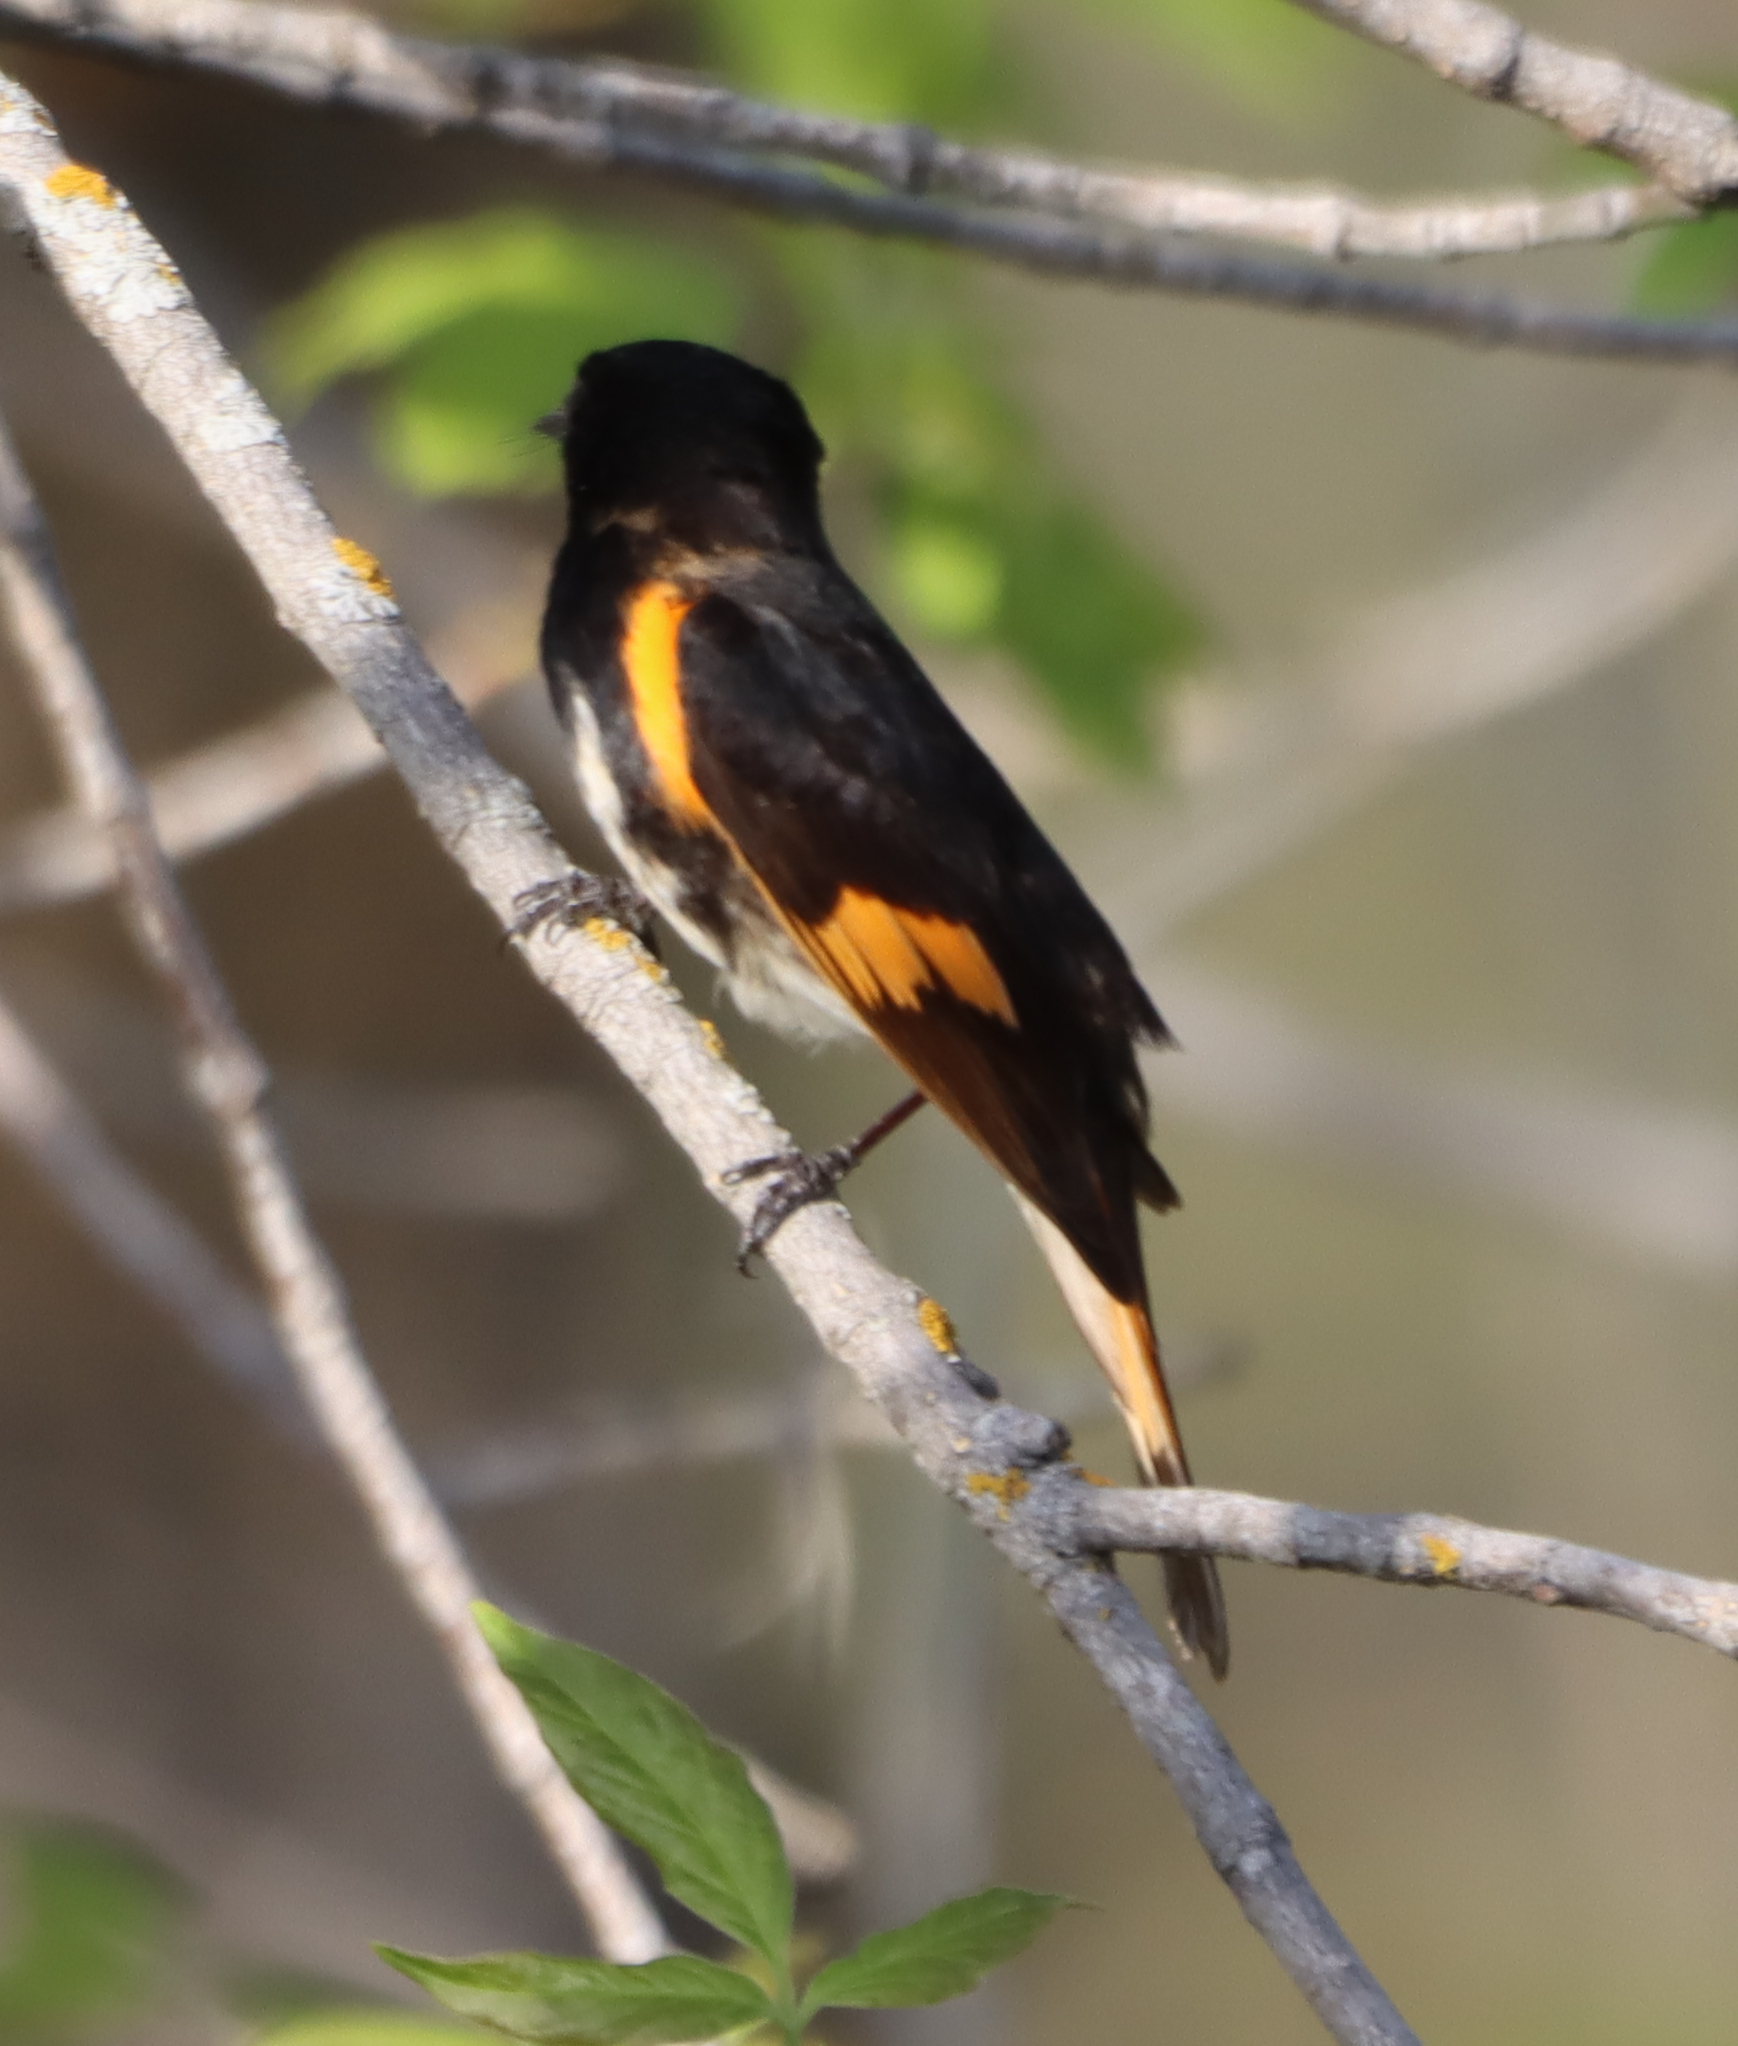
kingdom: Animalia
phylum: Chordata
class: Aves
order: Passeriformes
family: Parulidae
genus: Setophaga
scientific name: Setophaga ruticilla
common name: American redstart
